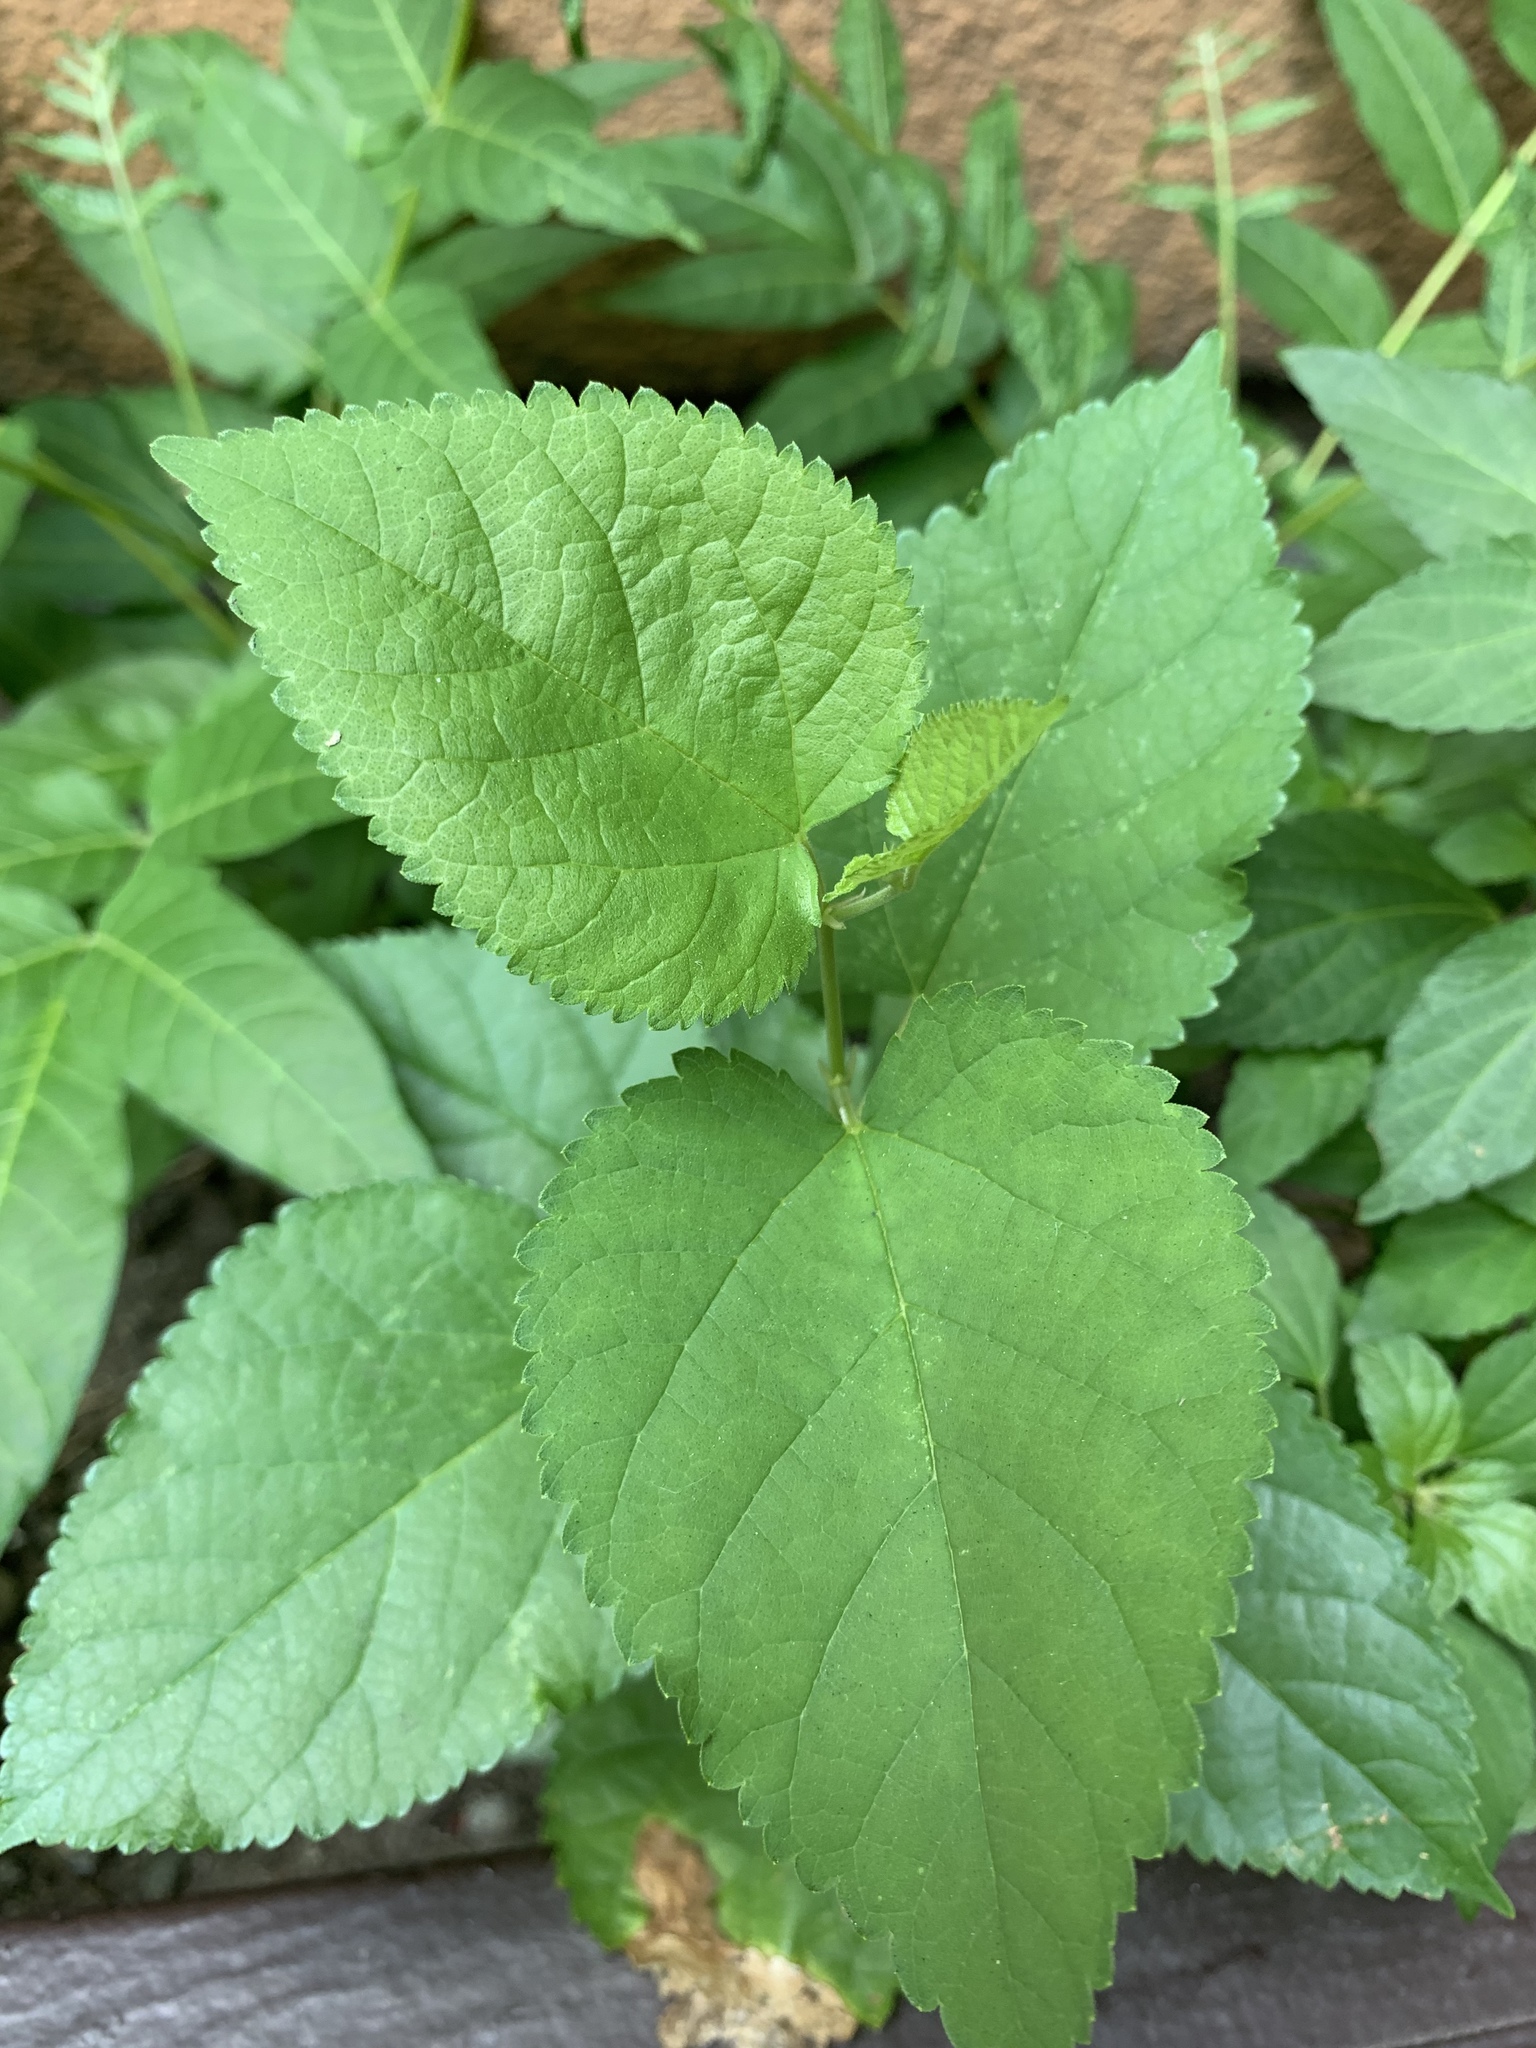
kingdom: Plantae
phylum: Tracheophyta
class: Magnoliopsida
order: Rosales
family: Moraceae
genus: Fatoua
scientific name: Fatoua villosa
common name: Hairy crabweed
